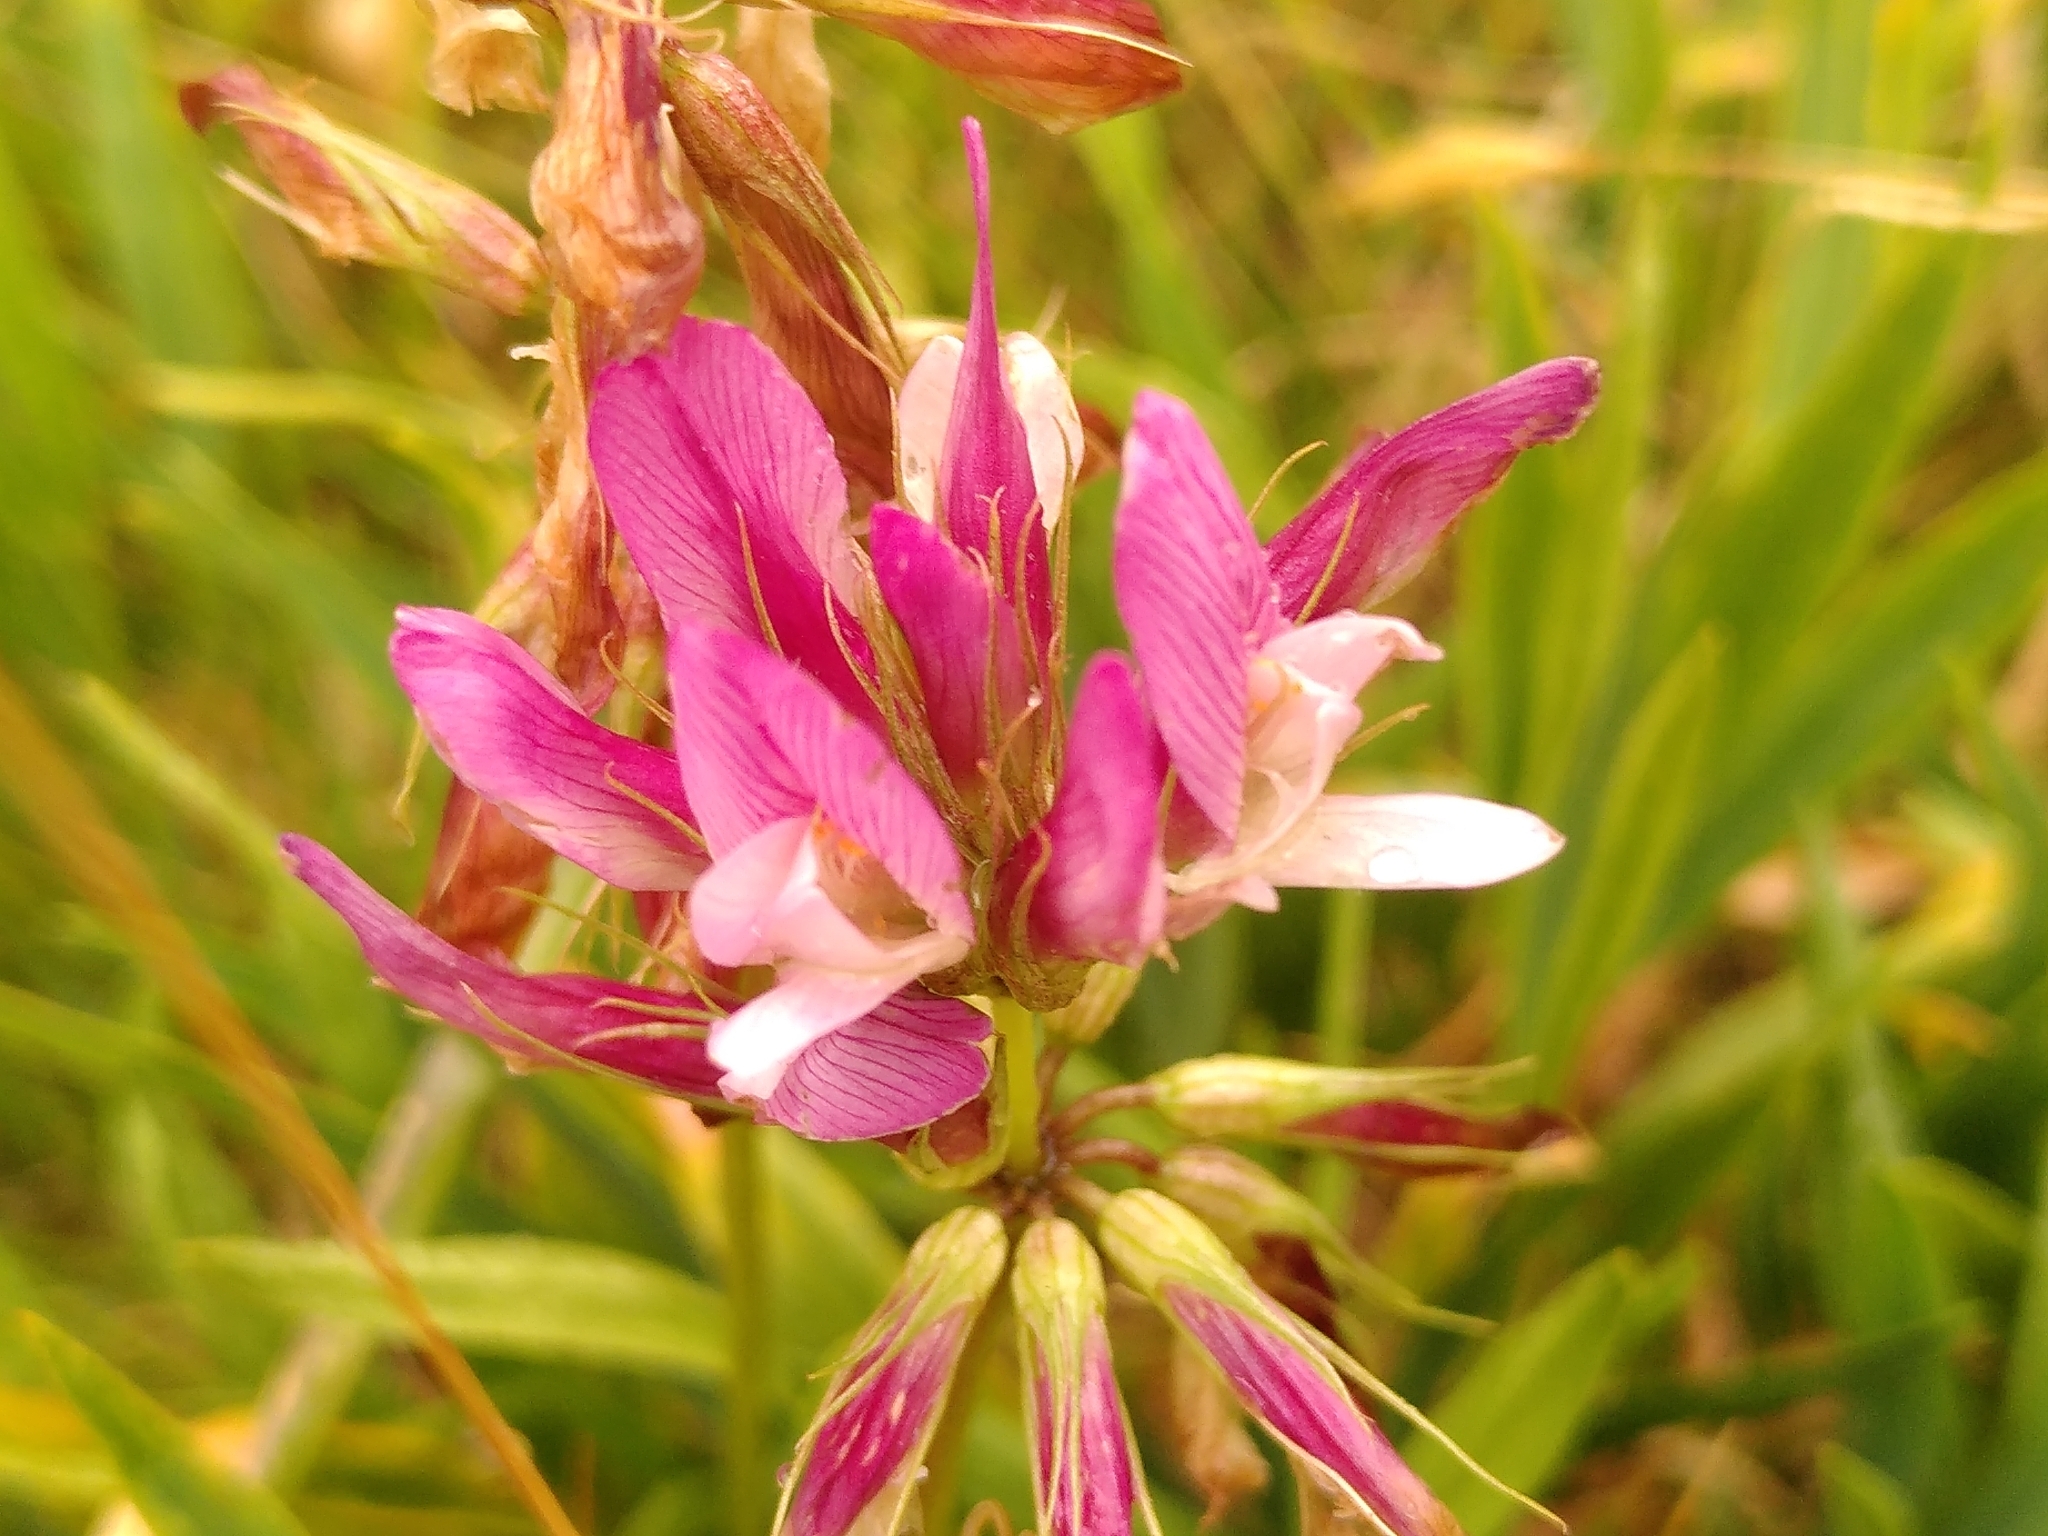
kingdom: Plantae
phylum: Tracheophyta
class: Magnoliopsida
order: Fabales
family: Fabaceae
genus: Trifolium
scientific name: Trifolium alpinum
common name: Alpine clover
